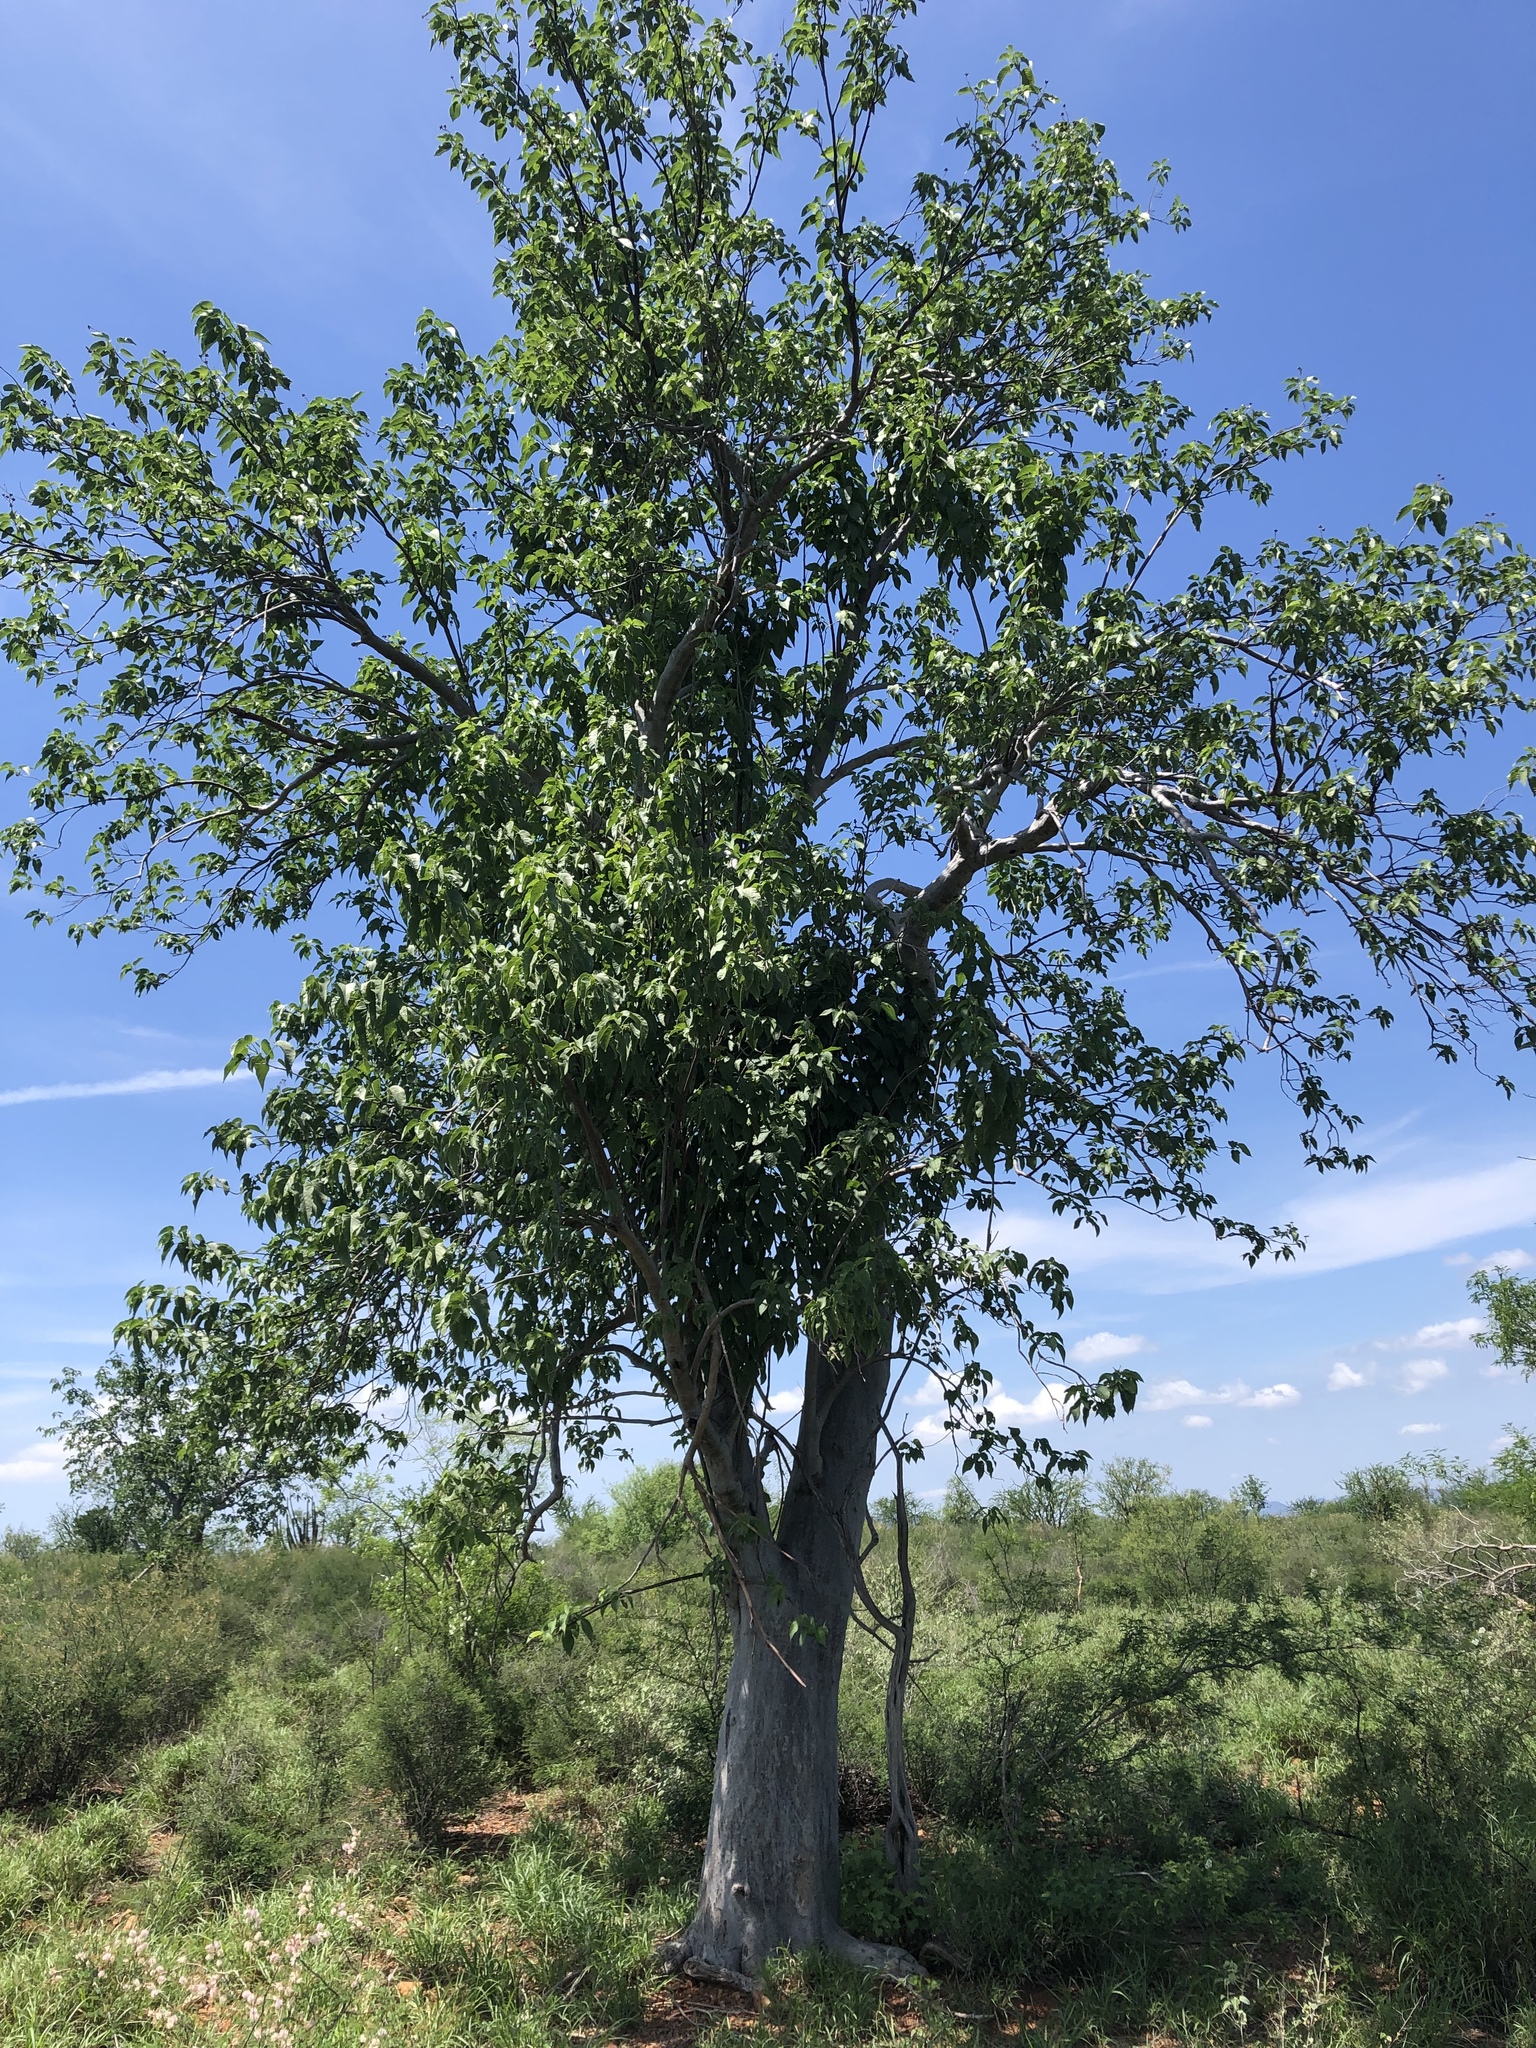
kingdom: Plantae
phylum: Tracheophyta
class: Magnoliopsida
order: Solanales
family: Convolvulaceae
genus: Ipomoea
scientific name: Ipomoea arborescens
